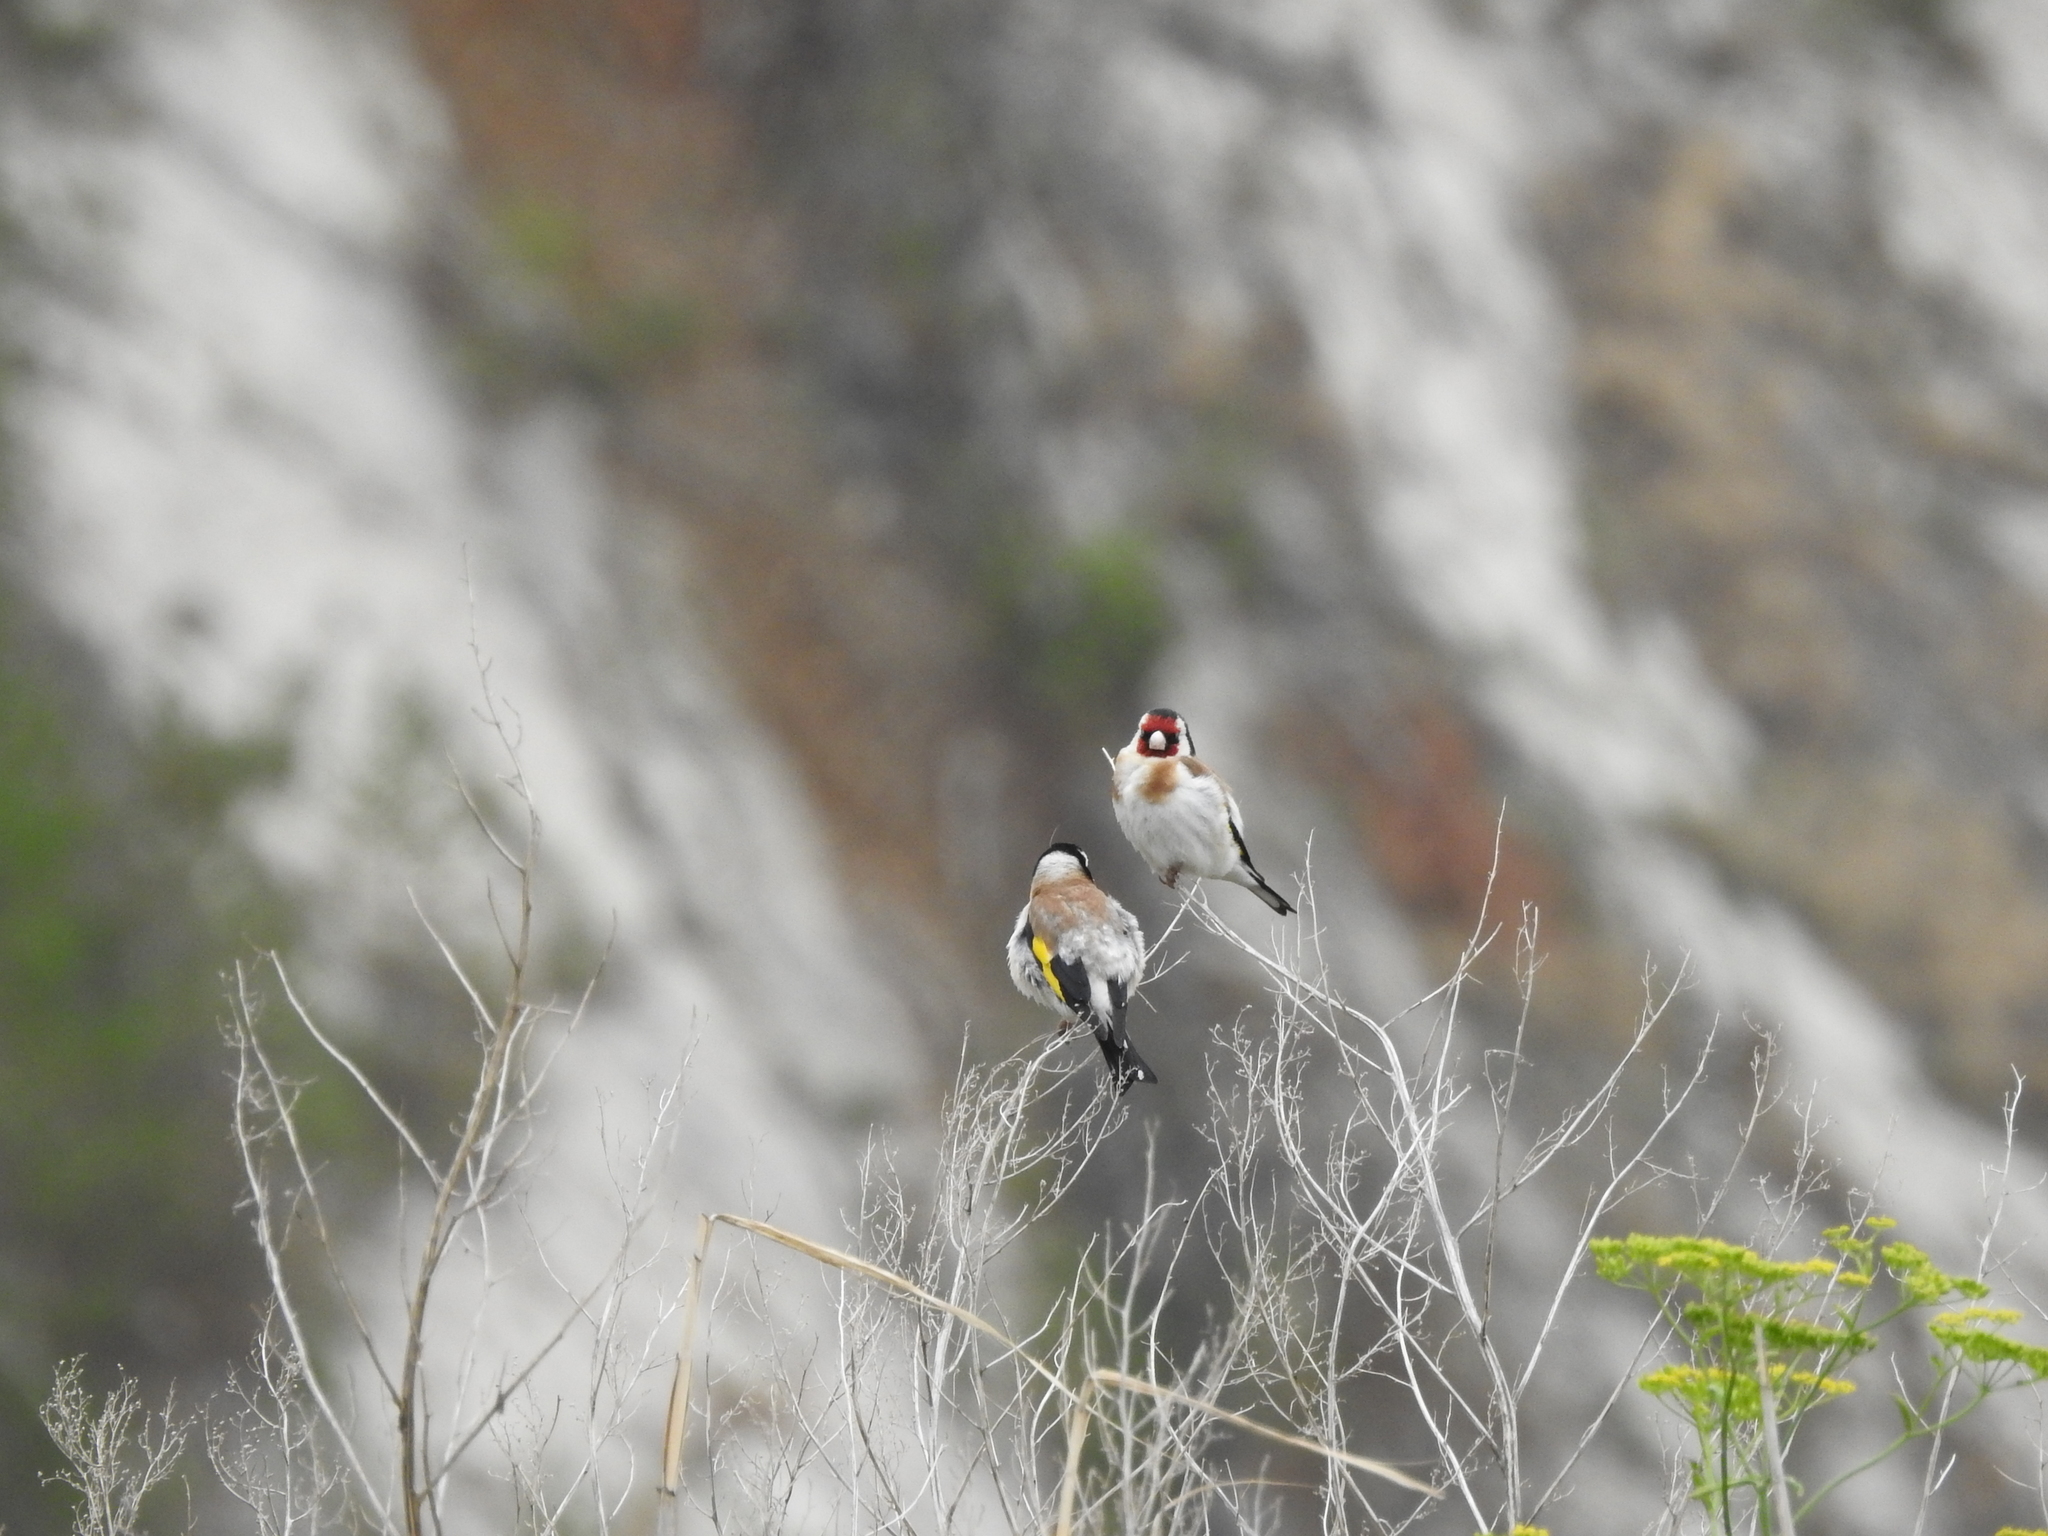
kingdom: Animalia
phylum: Chordata
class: Aves
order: Passeriformes
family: Fringillidae
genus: Carduelis
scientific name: Carduelis carduelis
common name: European goldfinch
